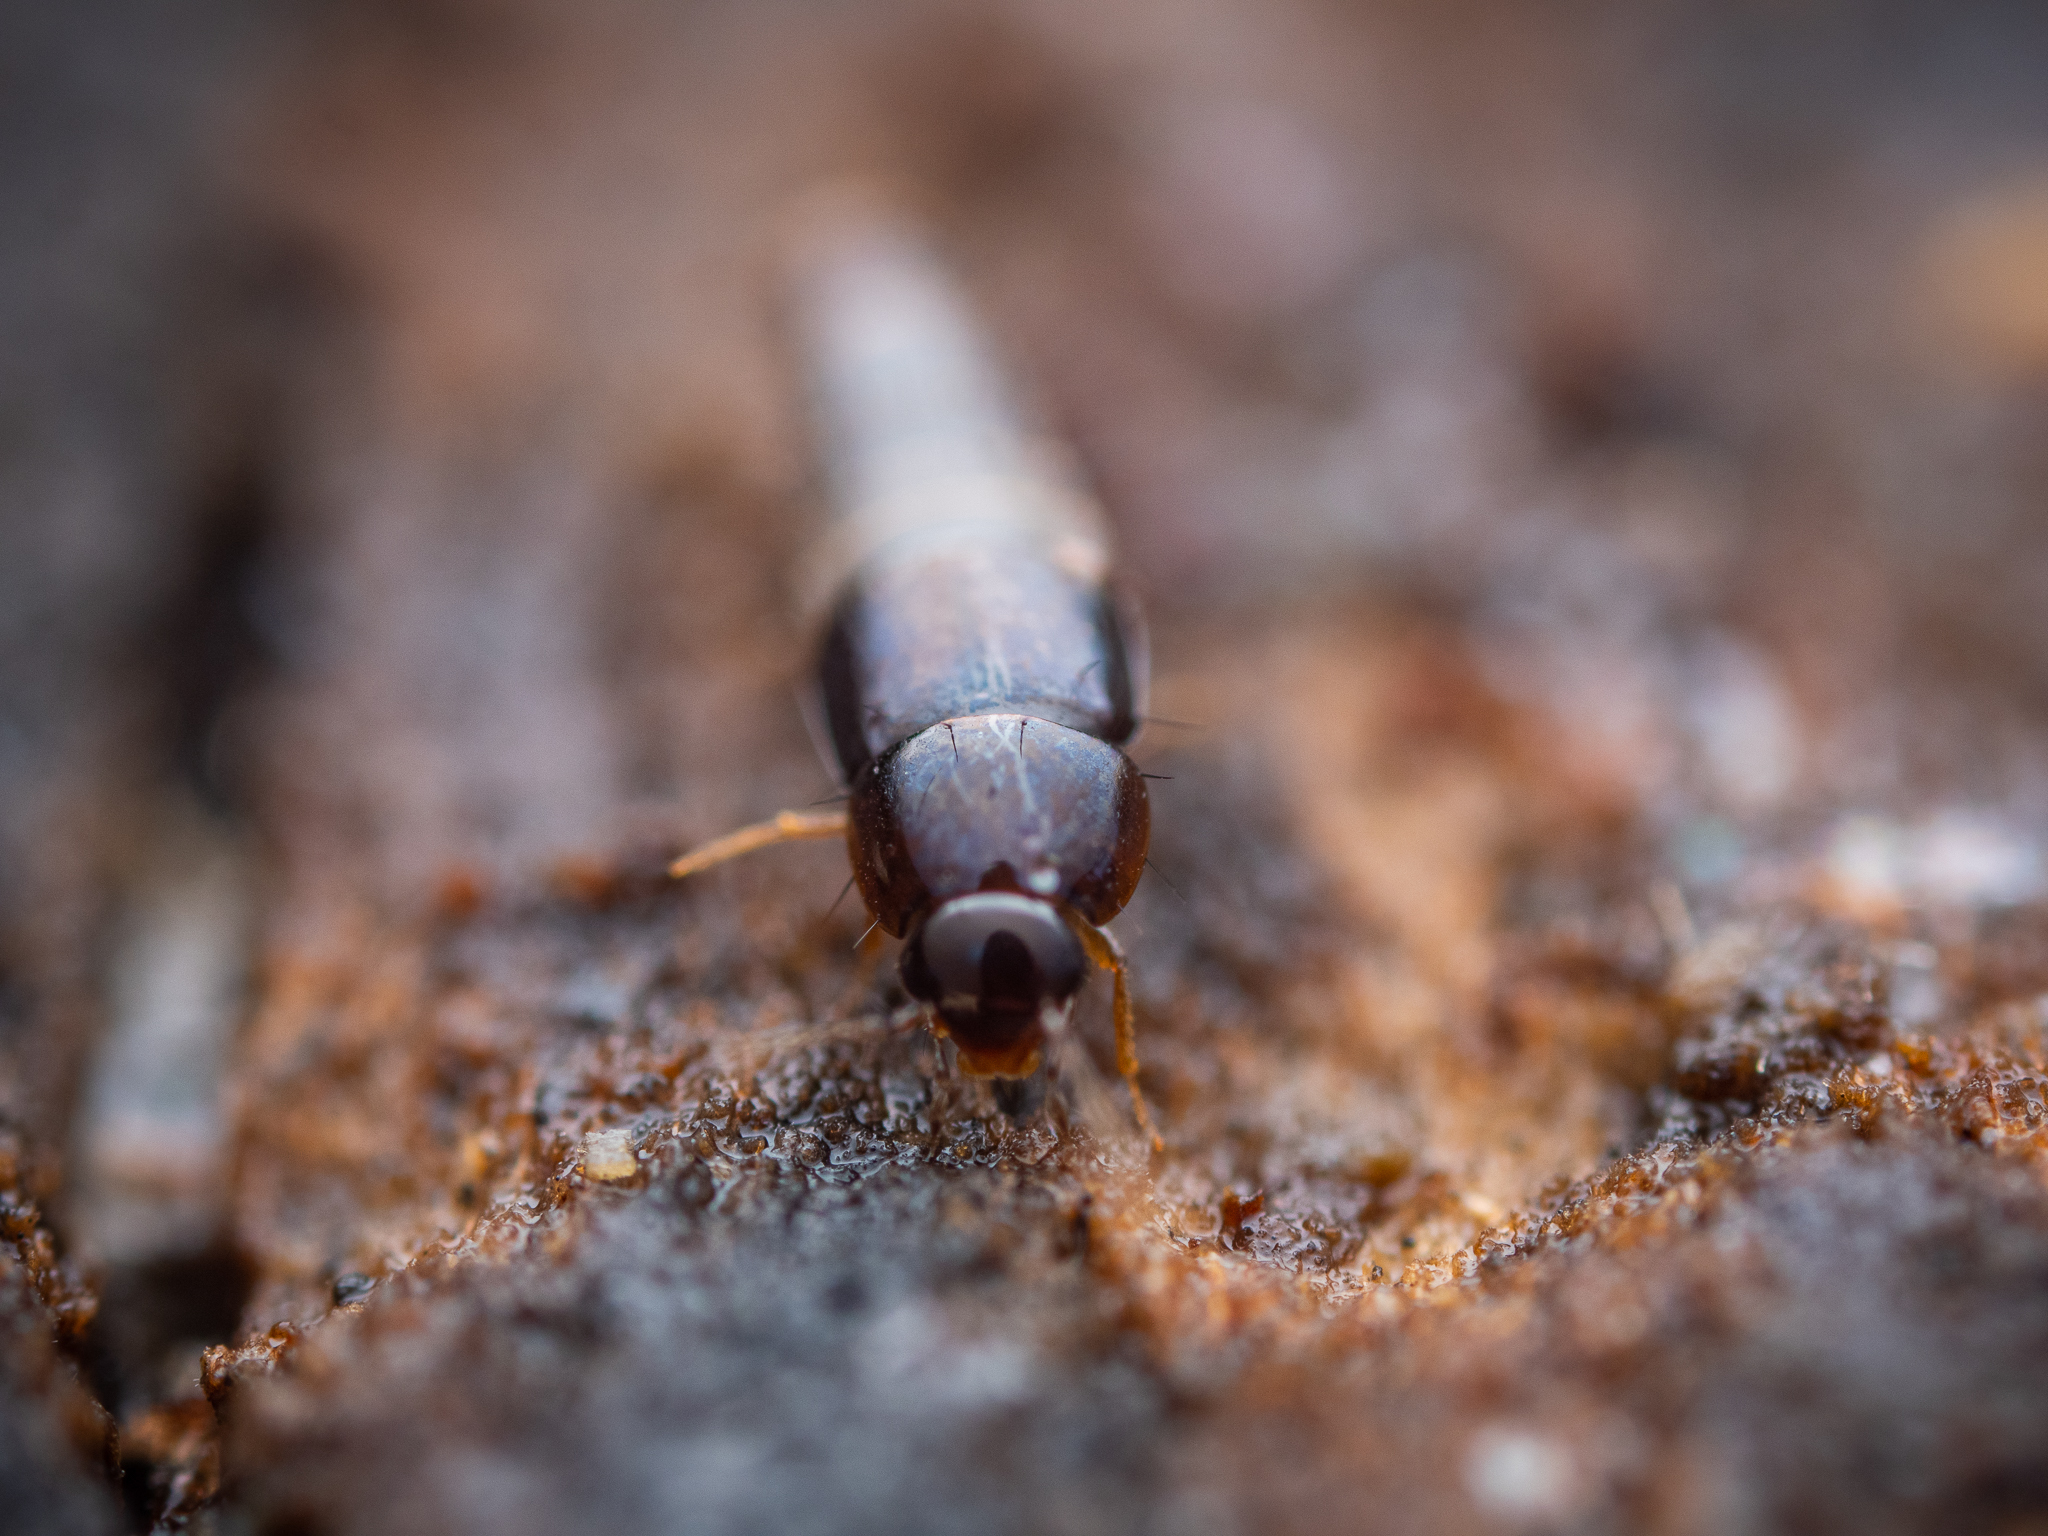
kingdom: Animalia
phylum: Arthropoda
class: Insecta
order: Coleoptera
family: Staphylinidae
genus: Habrocerus
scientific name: Habrocerus capillaricornis
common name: Staph beetle
